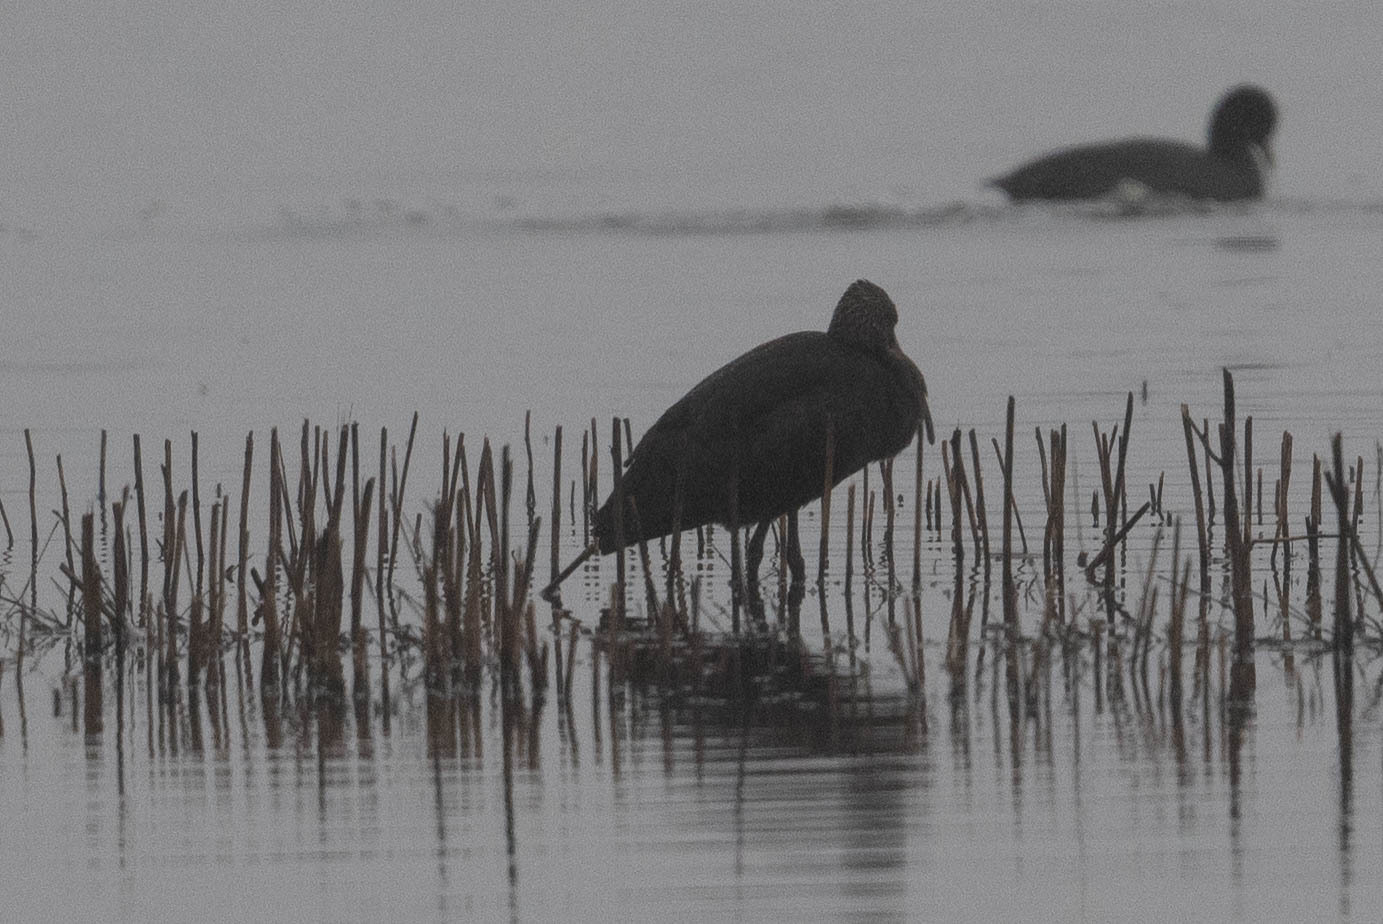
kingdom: Animalia
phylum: Chordata
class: Aves
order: Pelecaniformes
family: Threskiornithidae
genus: Plegadis
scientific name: Plegadis chihi
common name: White-faced ibis
